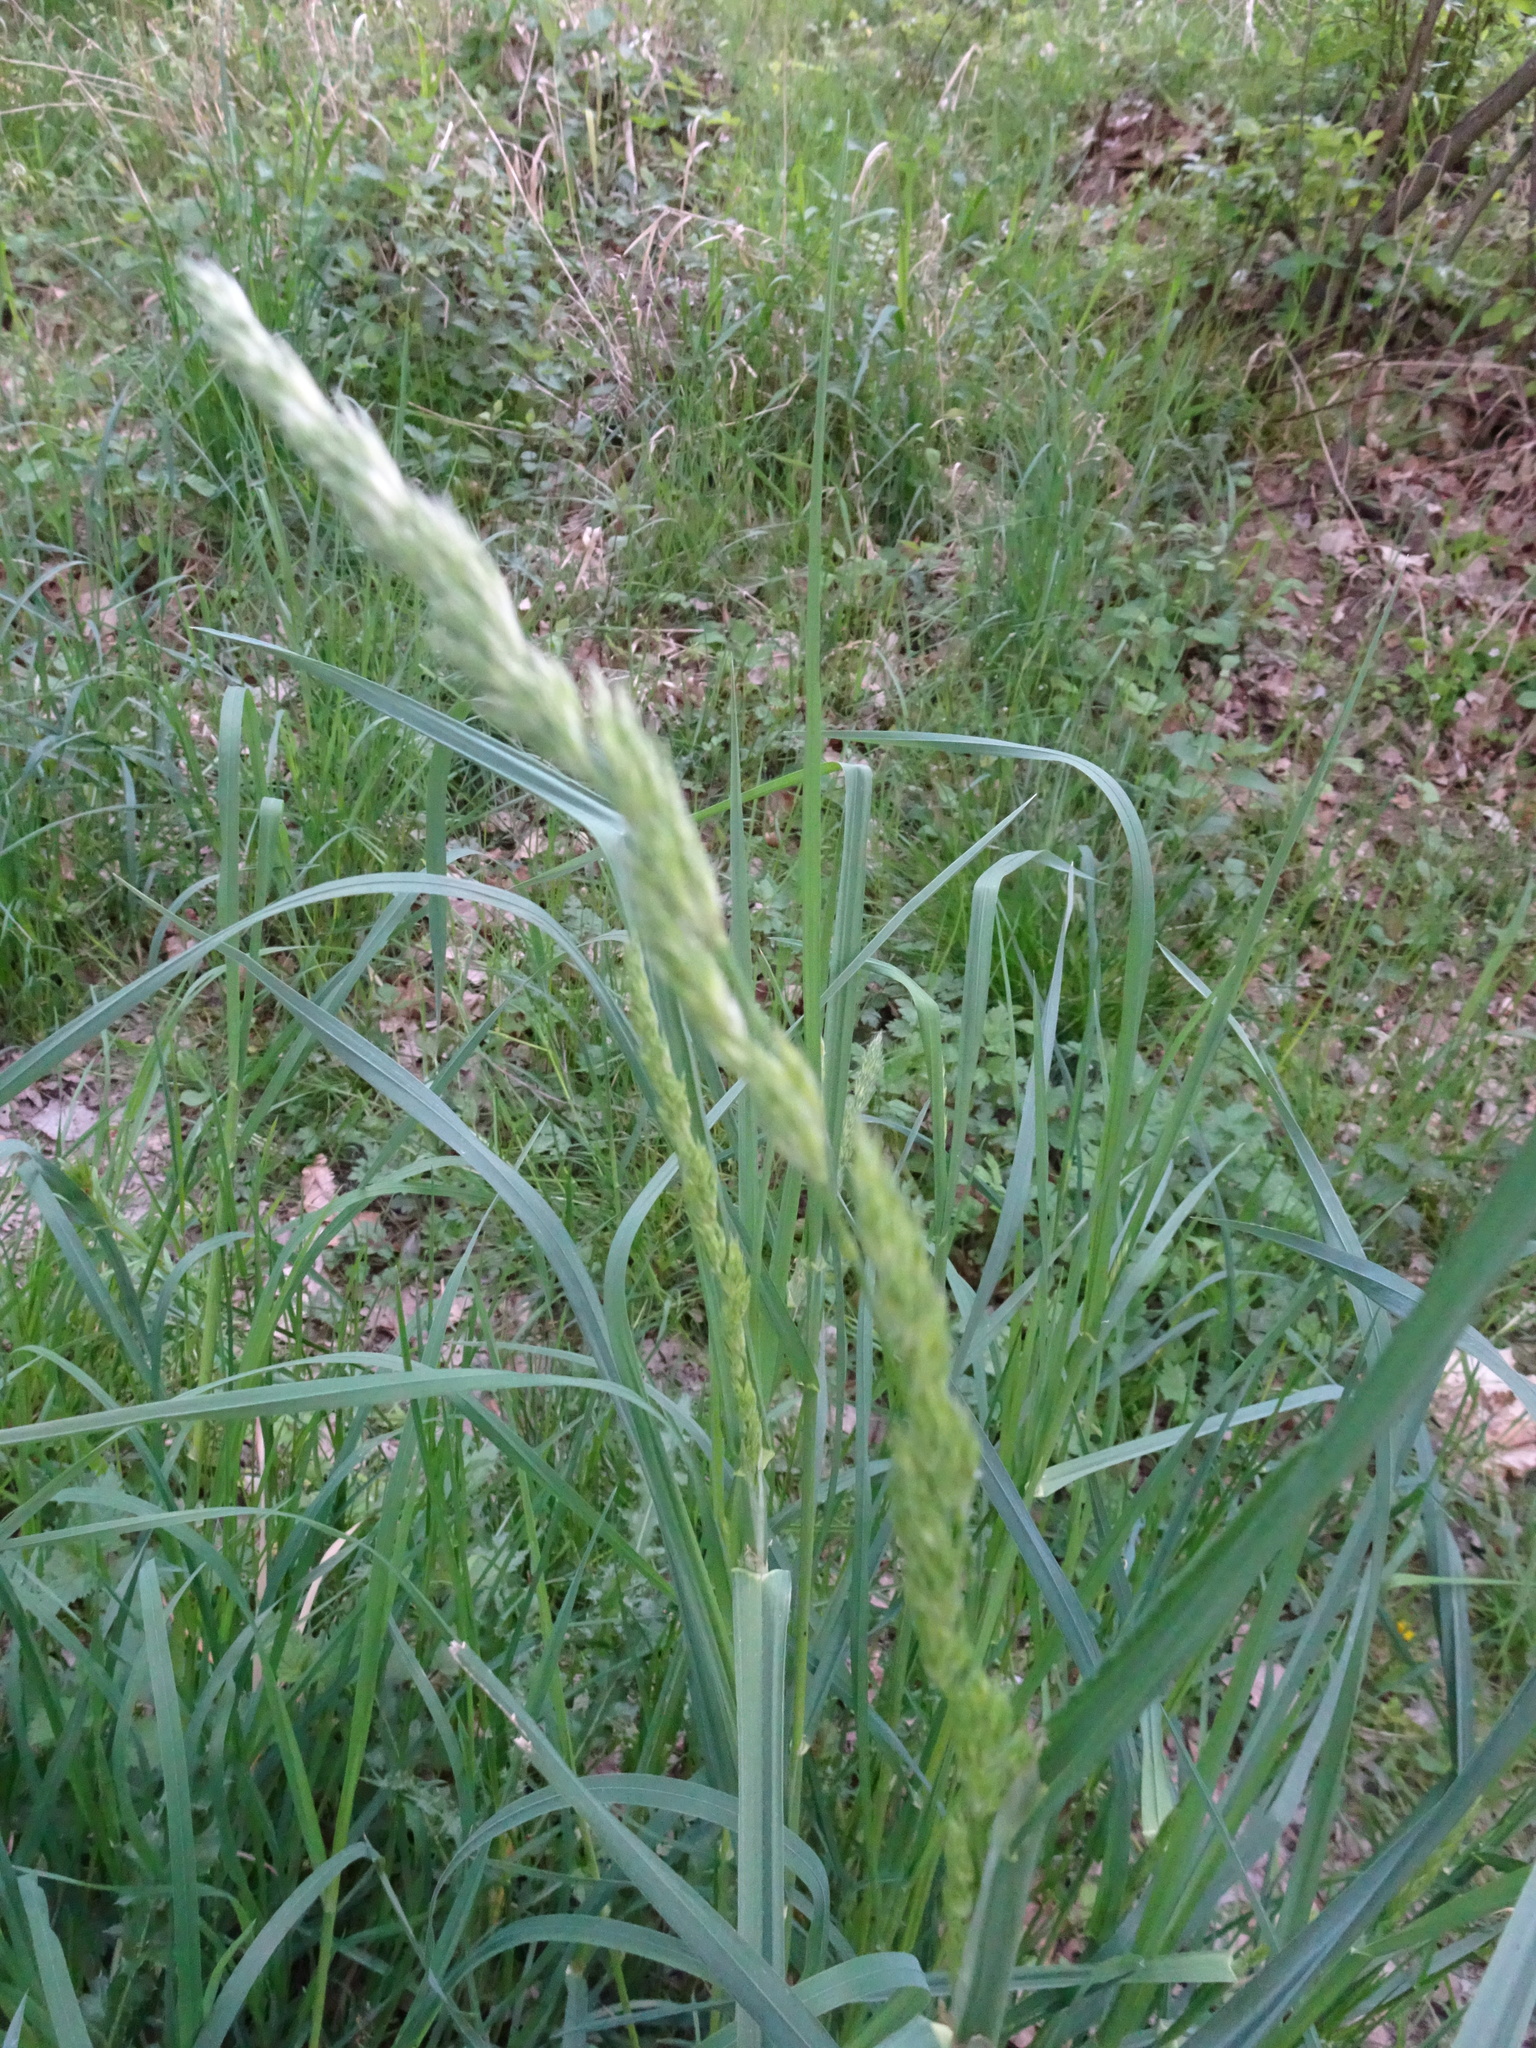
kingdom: Plantae
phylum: Tracheophyta
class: Liliopsida
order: Poales
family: Poaceae
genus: Dactylis
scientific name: Dactylis glomerata
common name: Orchardgrass
